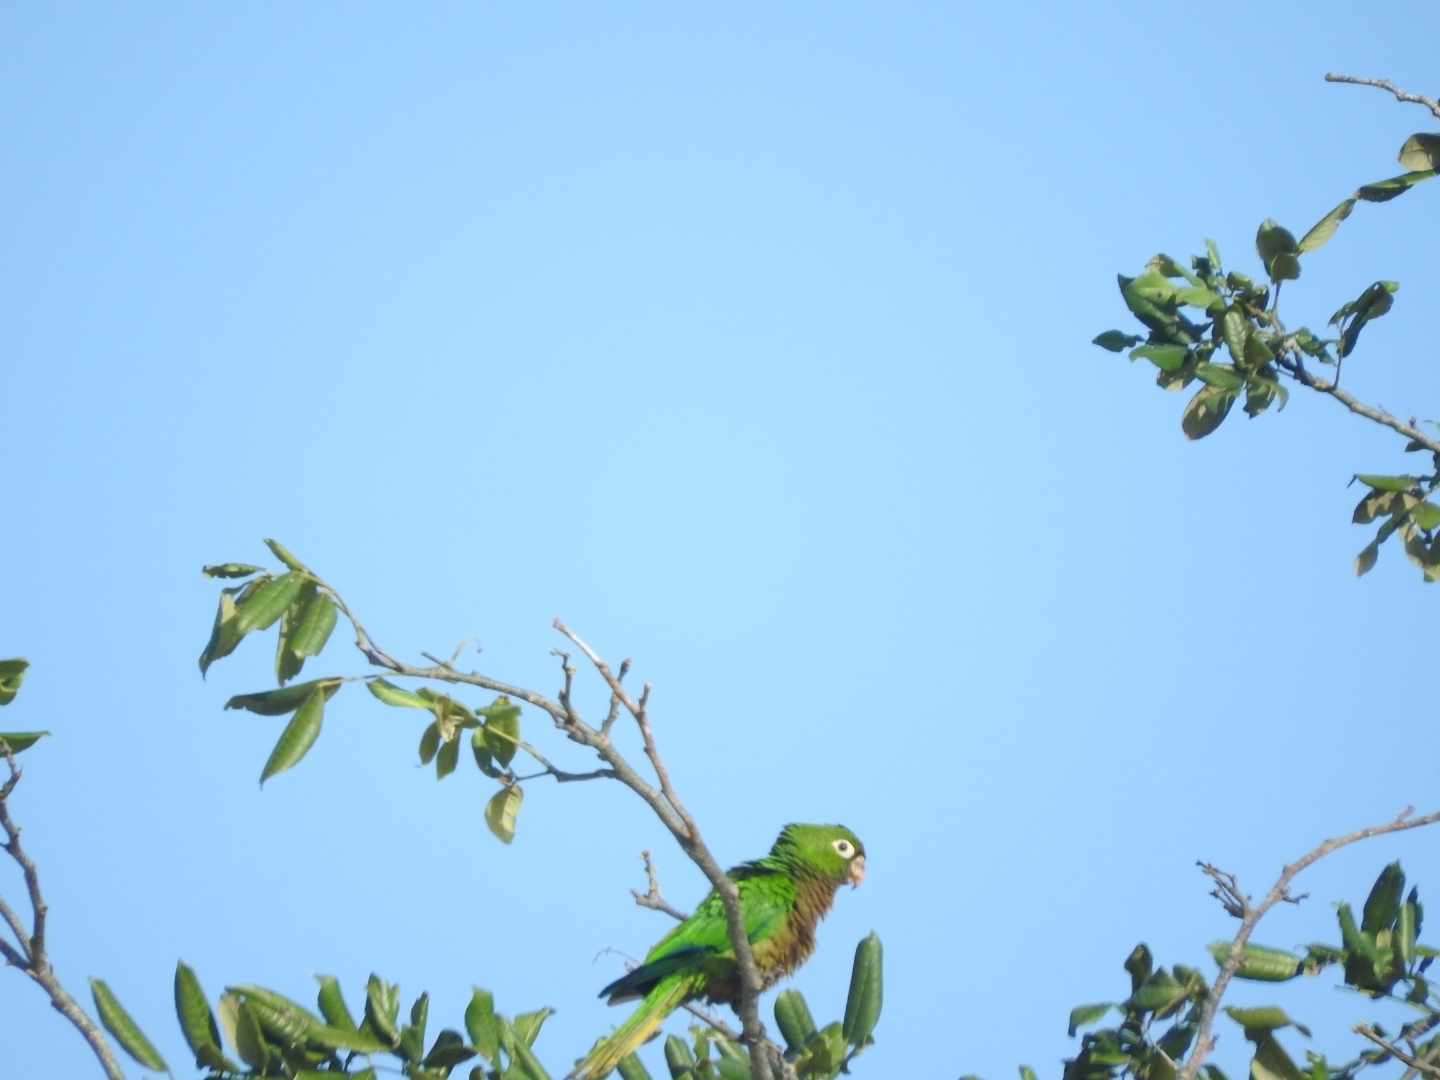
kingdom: Animalia
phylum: Chordata
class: Aves
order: Psittaciformes
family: Psittacidae
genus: Aratinga
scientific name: Aratinga nana
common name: Olive-throated parakeet
